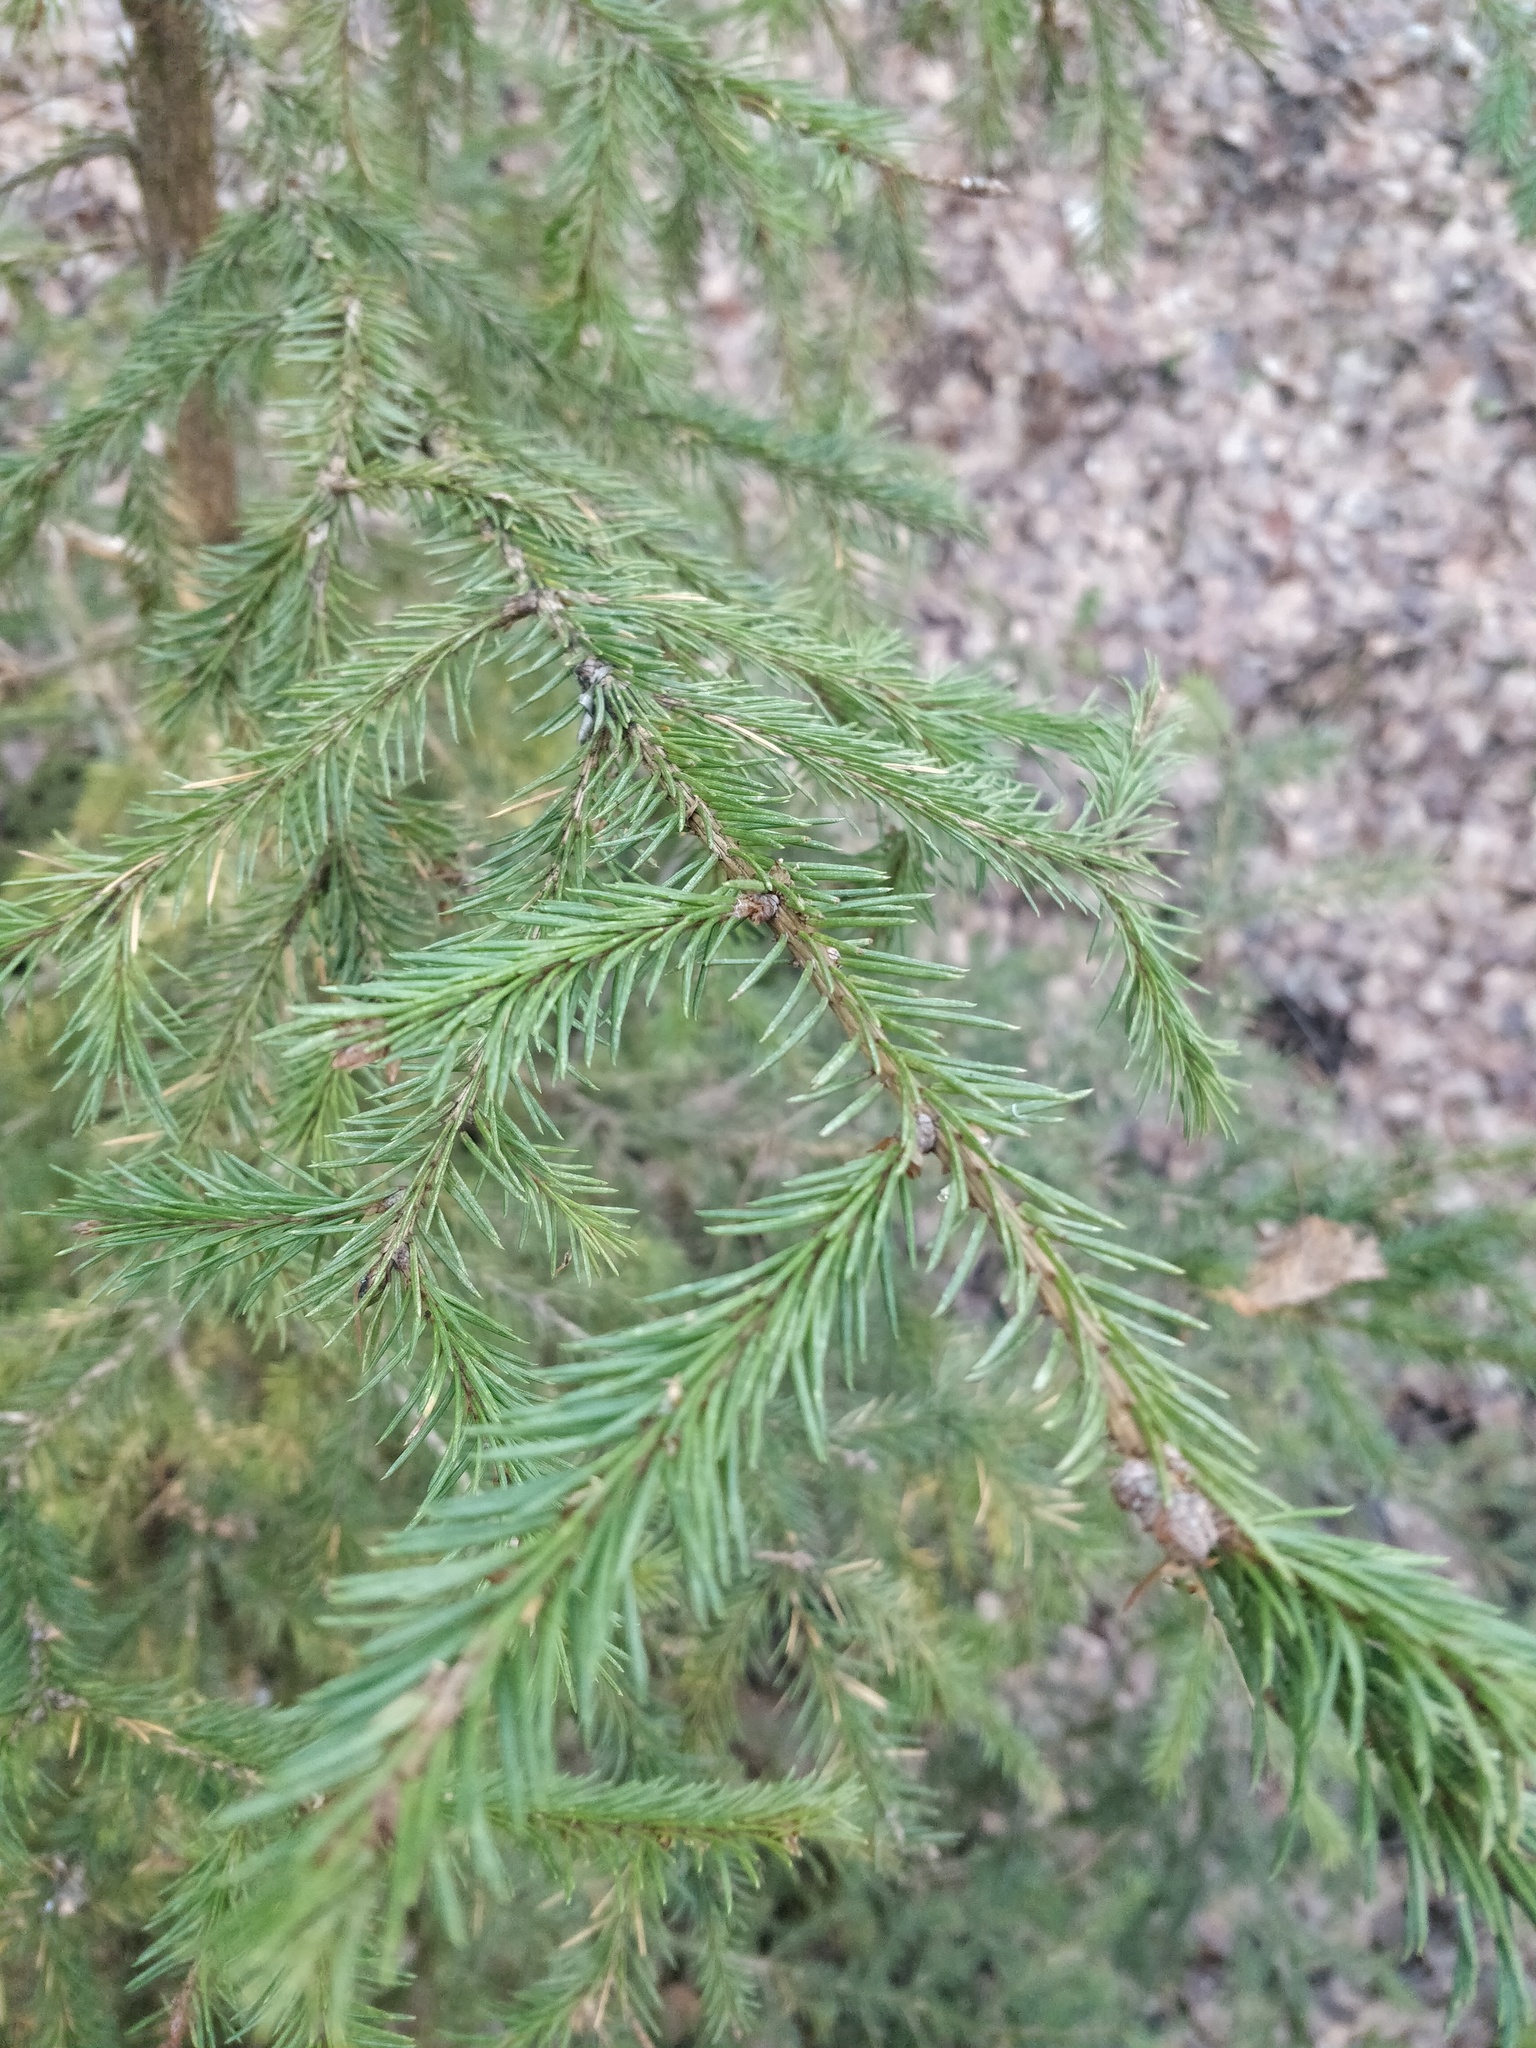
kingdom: Plantae
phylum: Tracheophyta
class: Pinopsida
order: Pinales
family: Pinaceae
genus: Picea
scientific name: Picea
